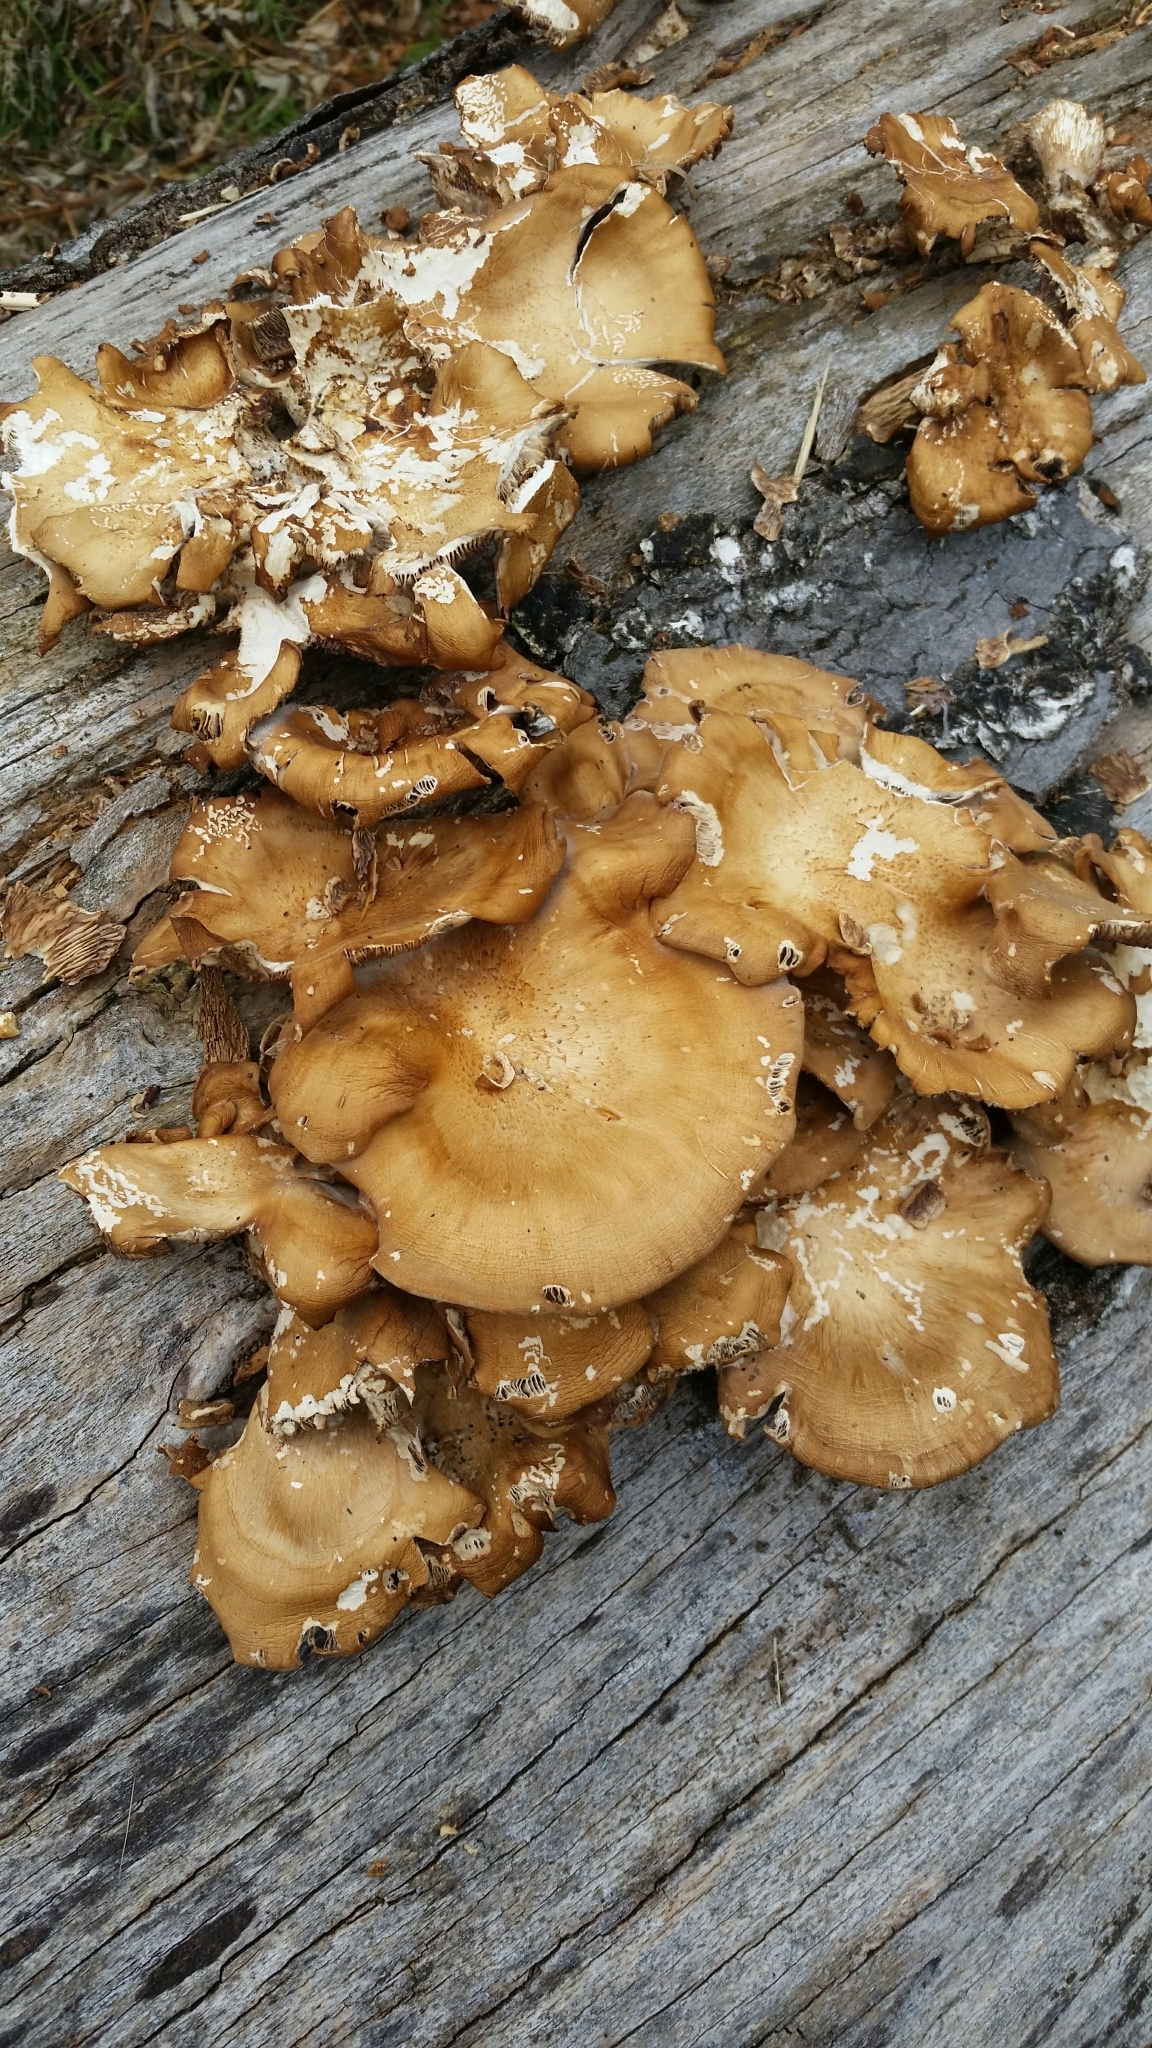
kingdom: Fungi
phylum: Basidiomycota
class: Agaricomycetes
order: Agaricales
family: Pleurotaceae
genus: Pleurotus
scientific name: Pleurotus ostreatus
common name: Oyster mushroom
